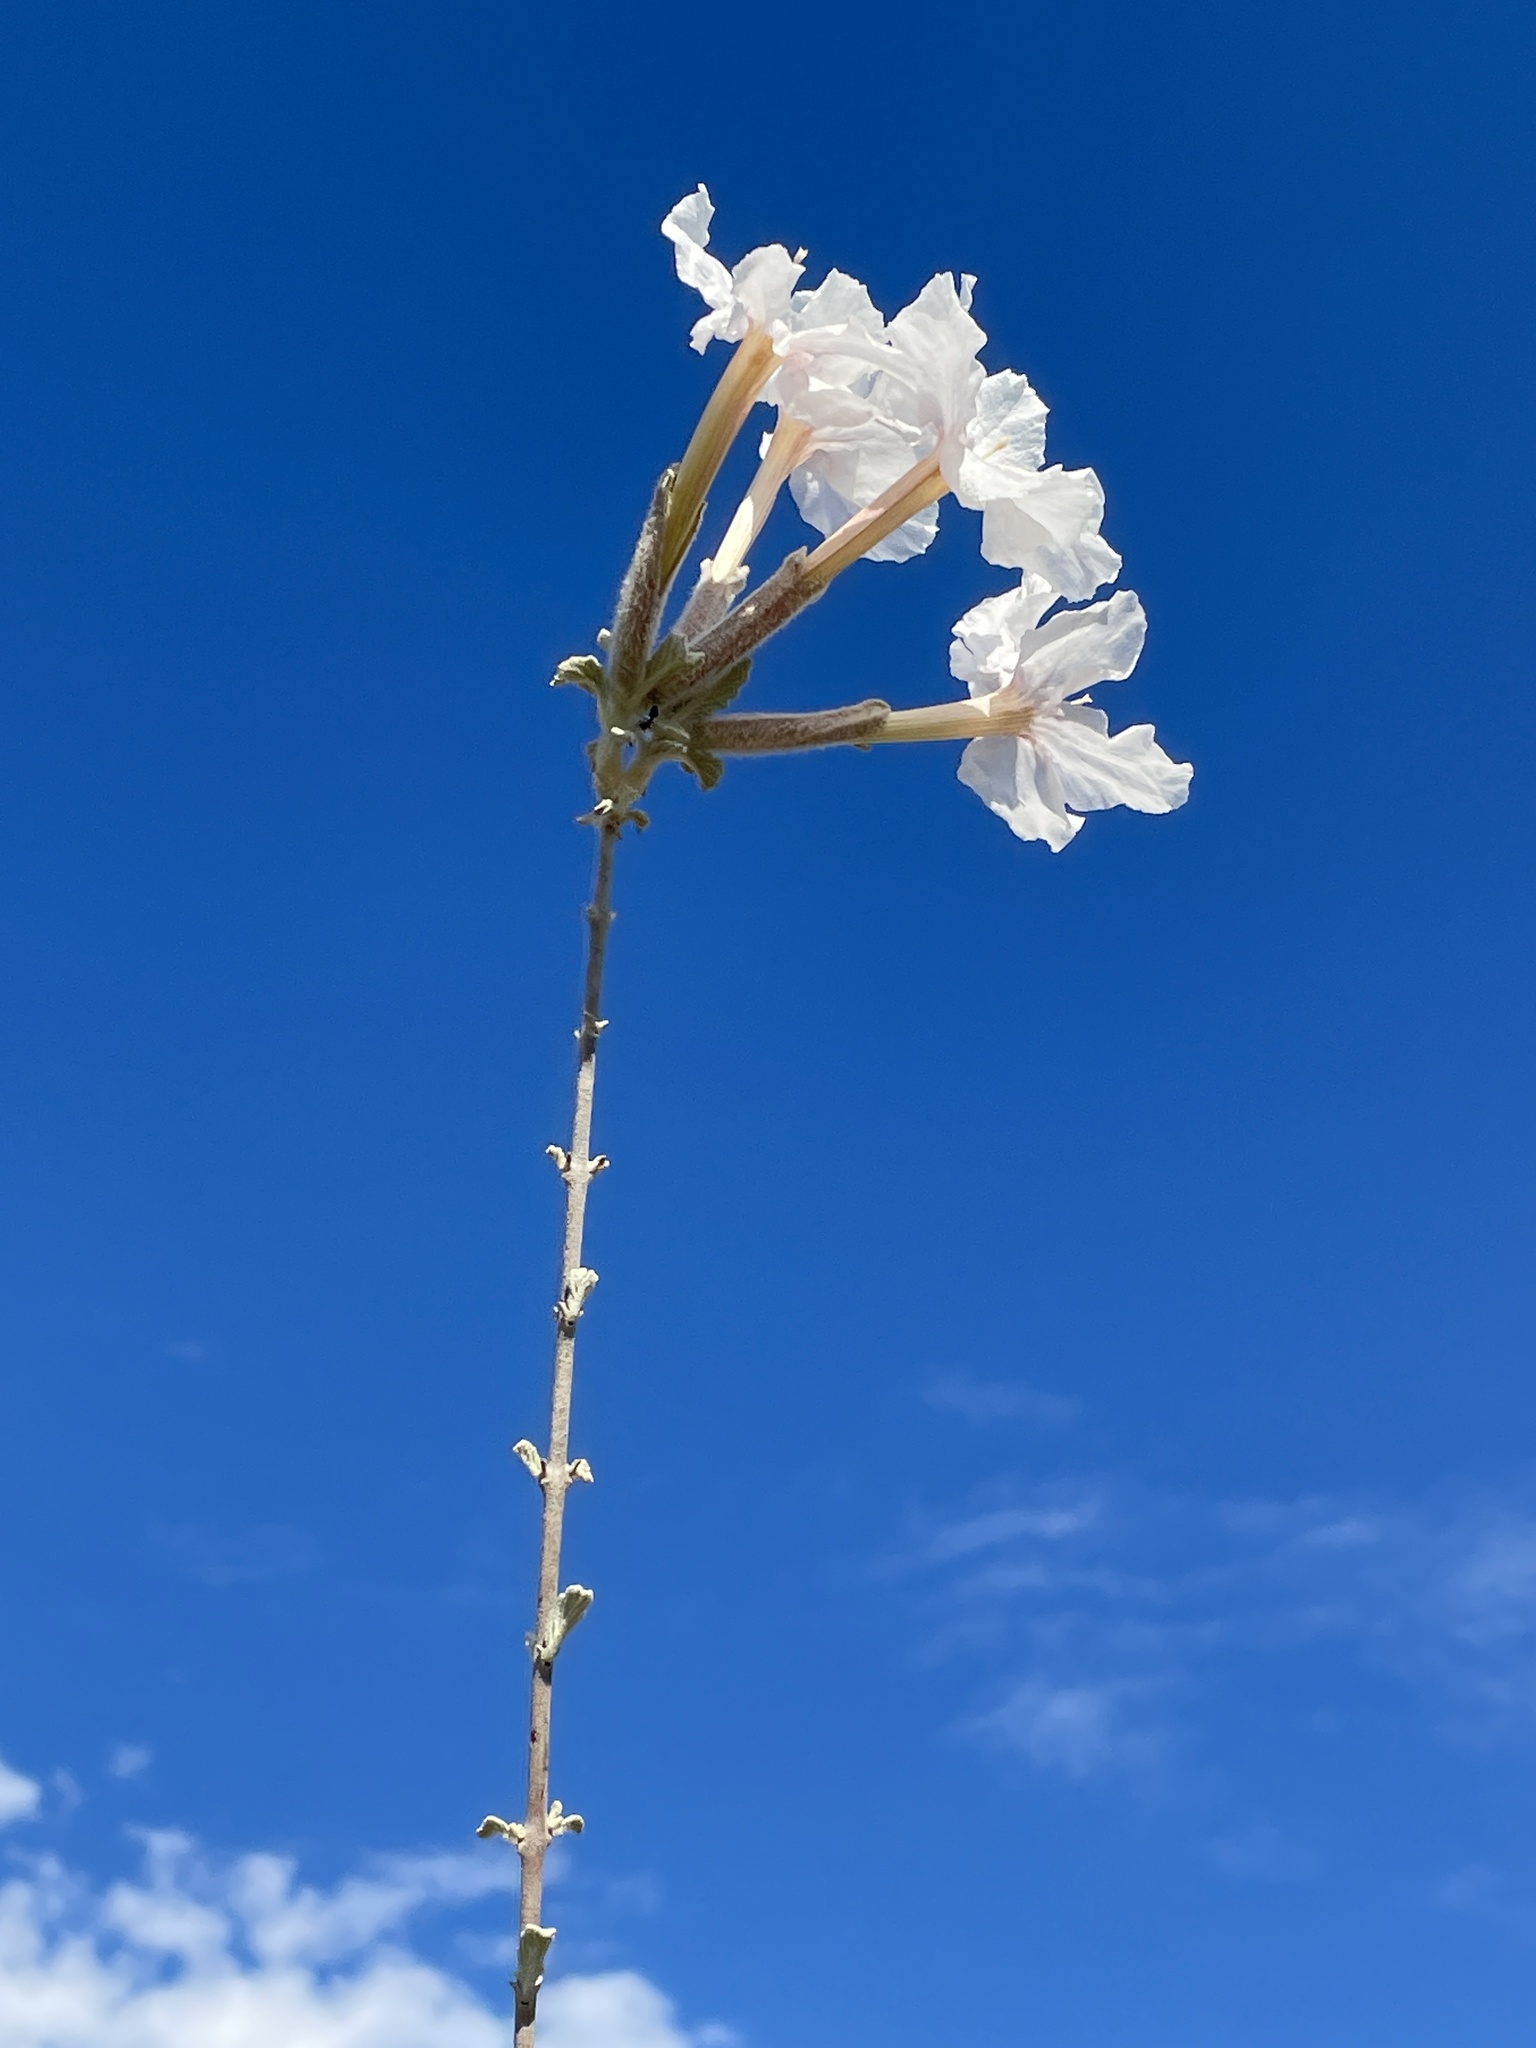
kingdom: Plantae
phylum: Tracheophyta
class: Magnoliopsida
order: Lamiales
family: Bignoniaceae
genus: Catophractes
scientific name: Catophractes alexandri
